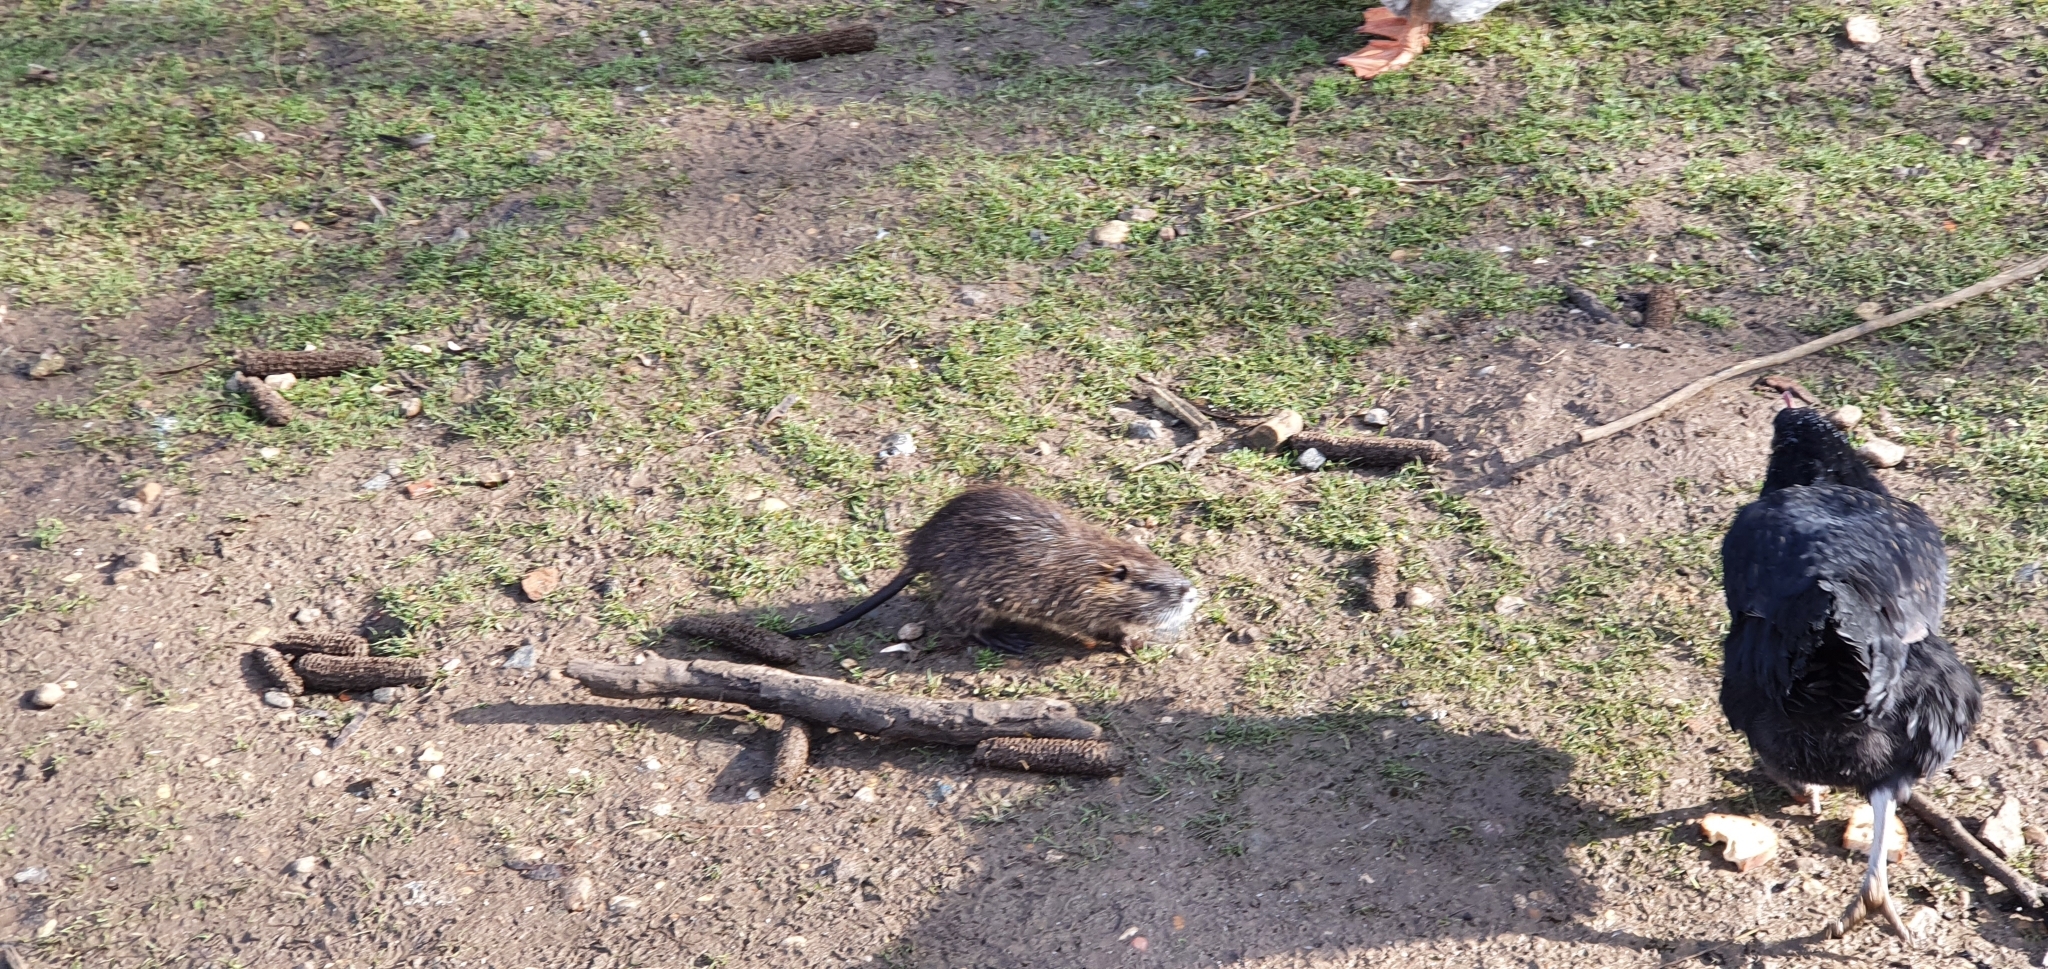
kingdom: Animalia
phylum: Chordata
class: Mammalia
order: Rodentia
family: Myocastoridae
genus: Myocastor
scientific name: Myocastor coypus
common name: Coypu
